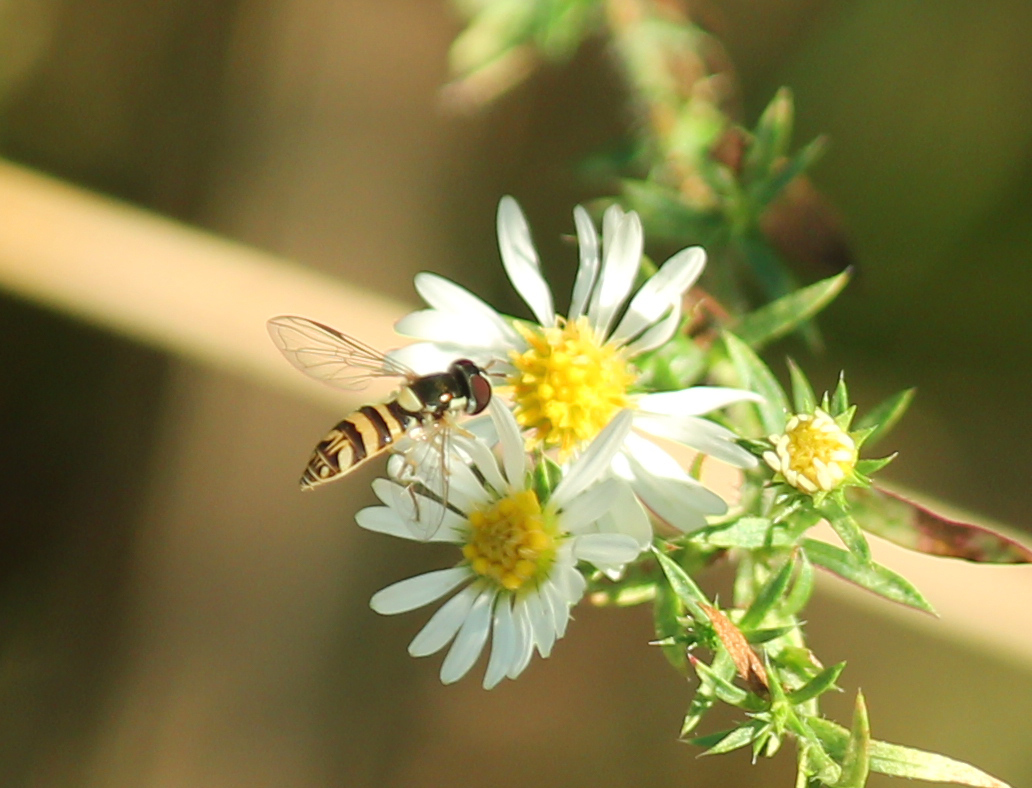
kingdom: Animalia
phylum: Arthropoda
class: Insecta
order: Diptera
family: Syrphidae
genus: Allograpta
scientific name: Allograpta exotica
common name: Syrphid fly
